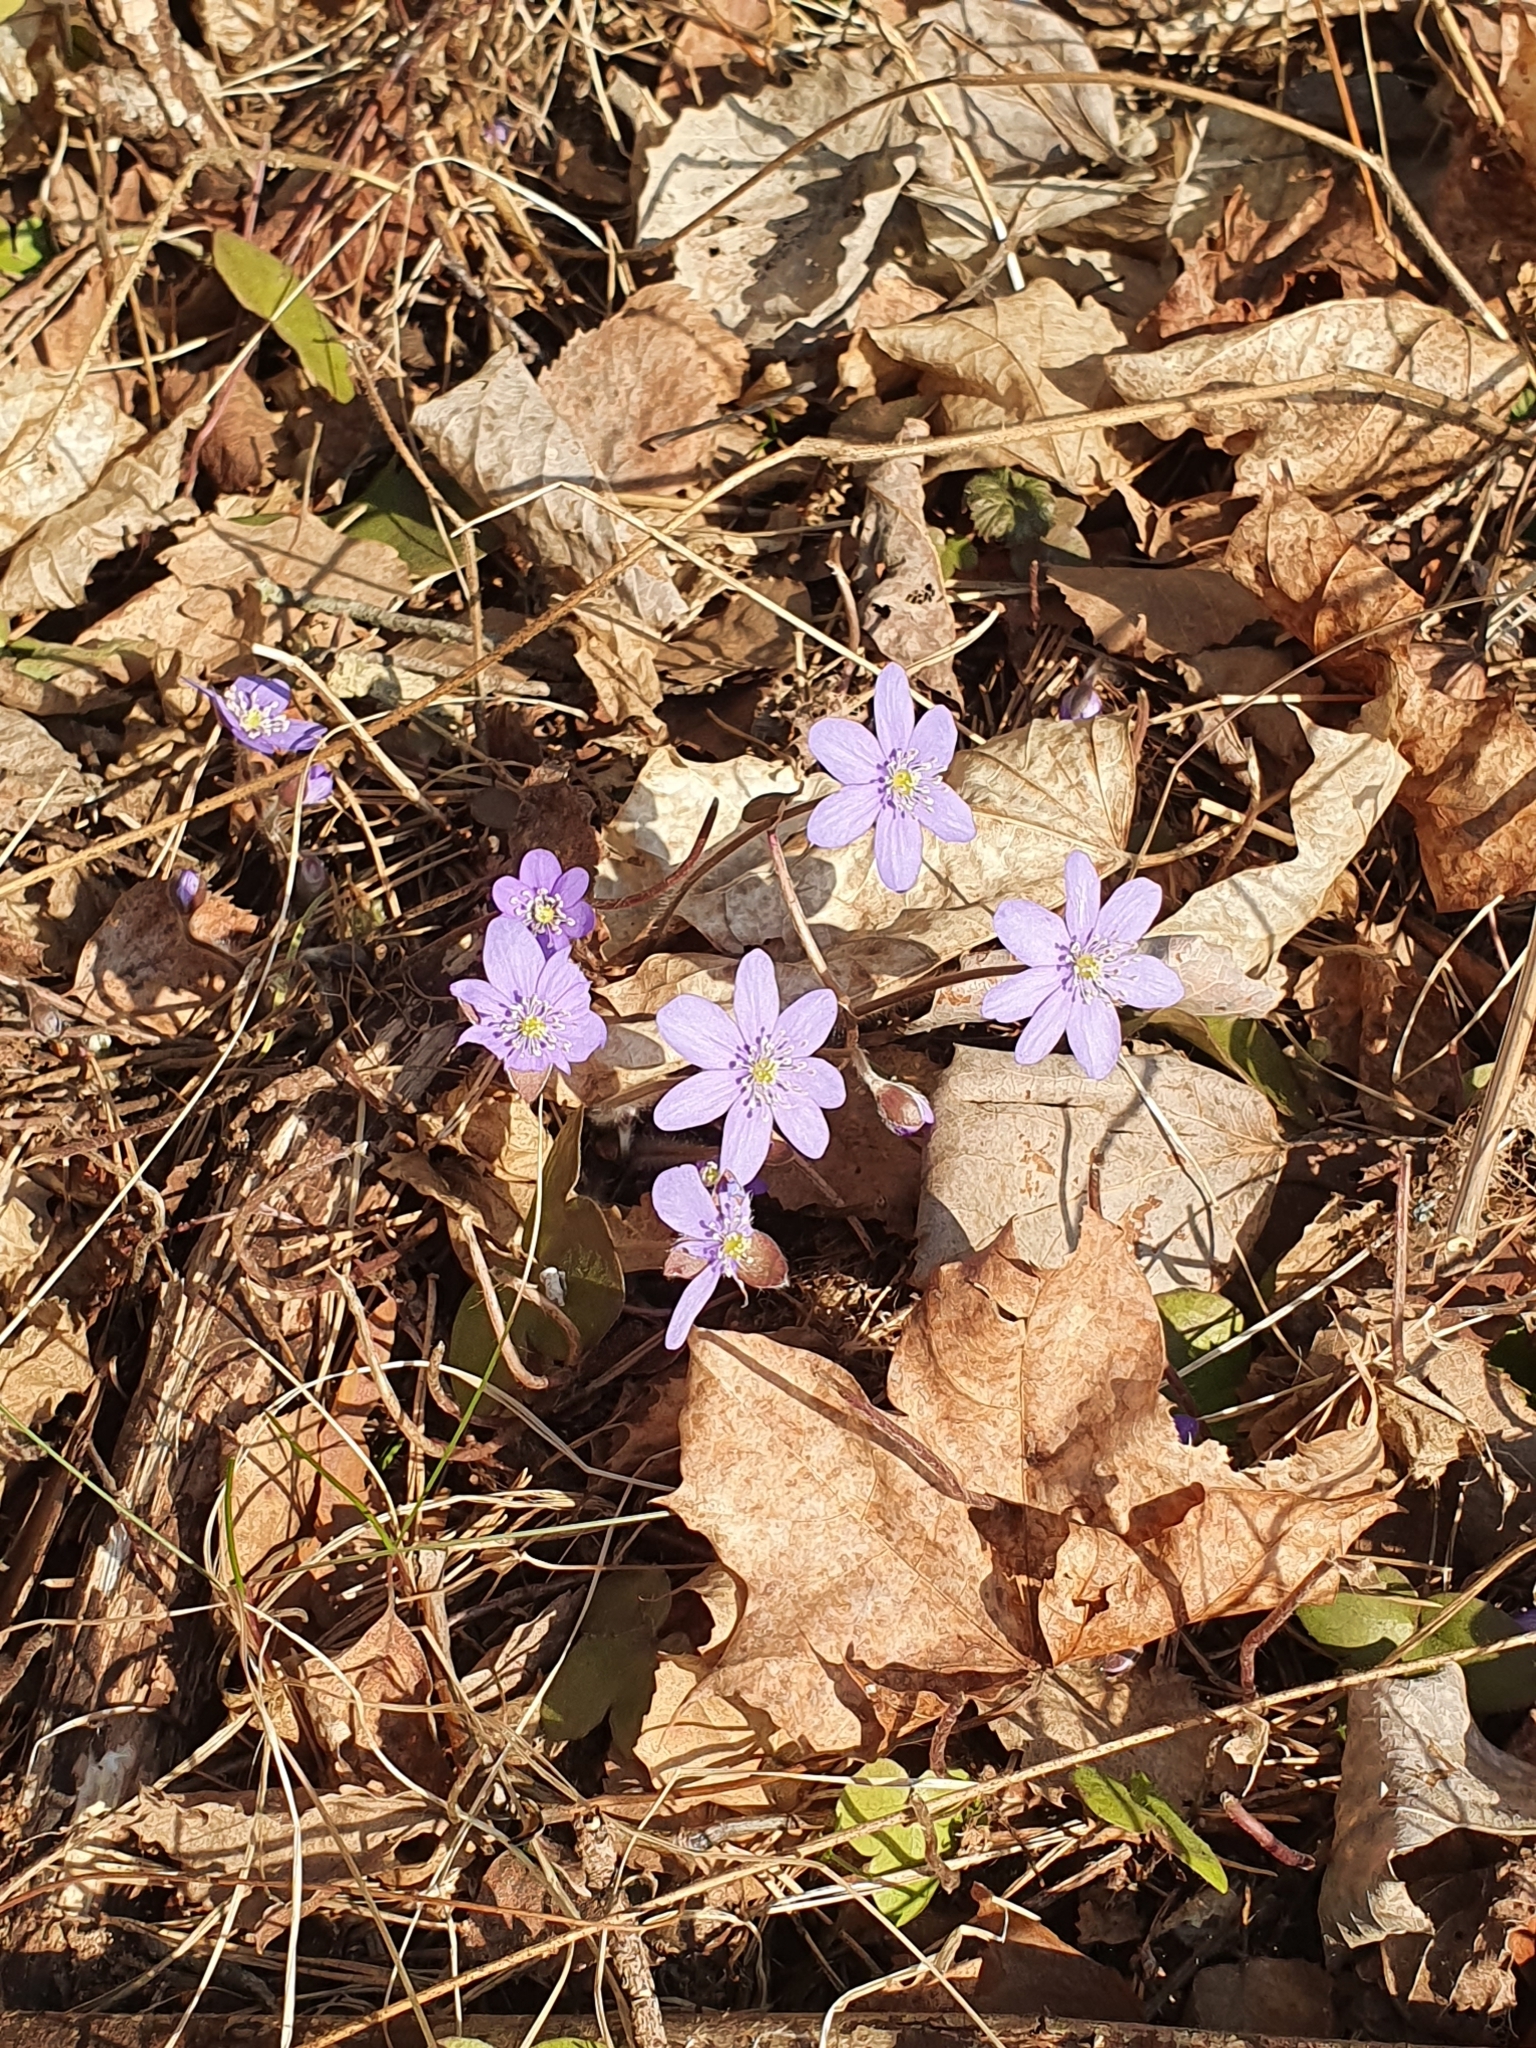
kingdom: Plantae
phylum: Tracheophyta
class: Magnoliopsida
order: Ranunculales
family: Ranunculaceae
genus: Hepatica
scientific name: Hepatica nobilis
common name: Liverleaf
